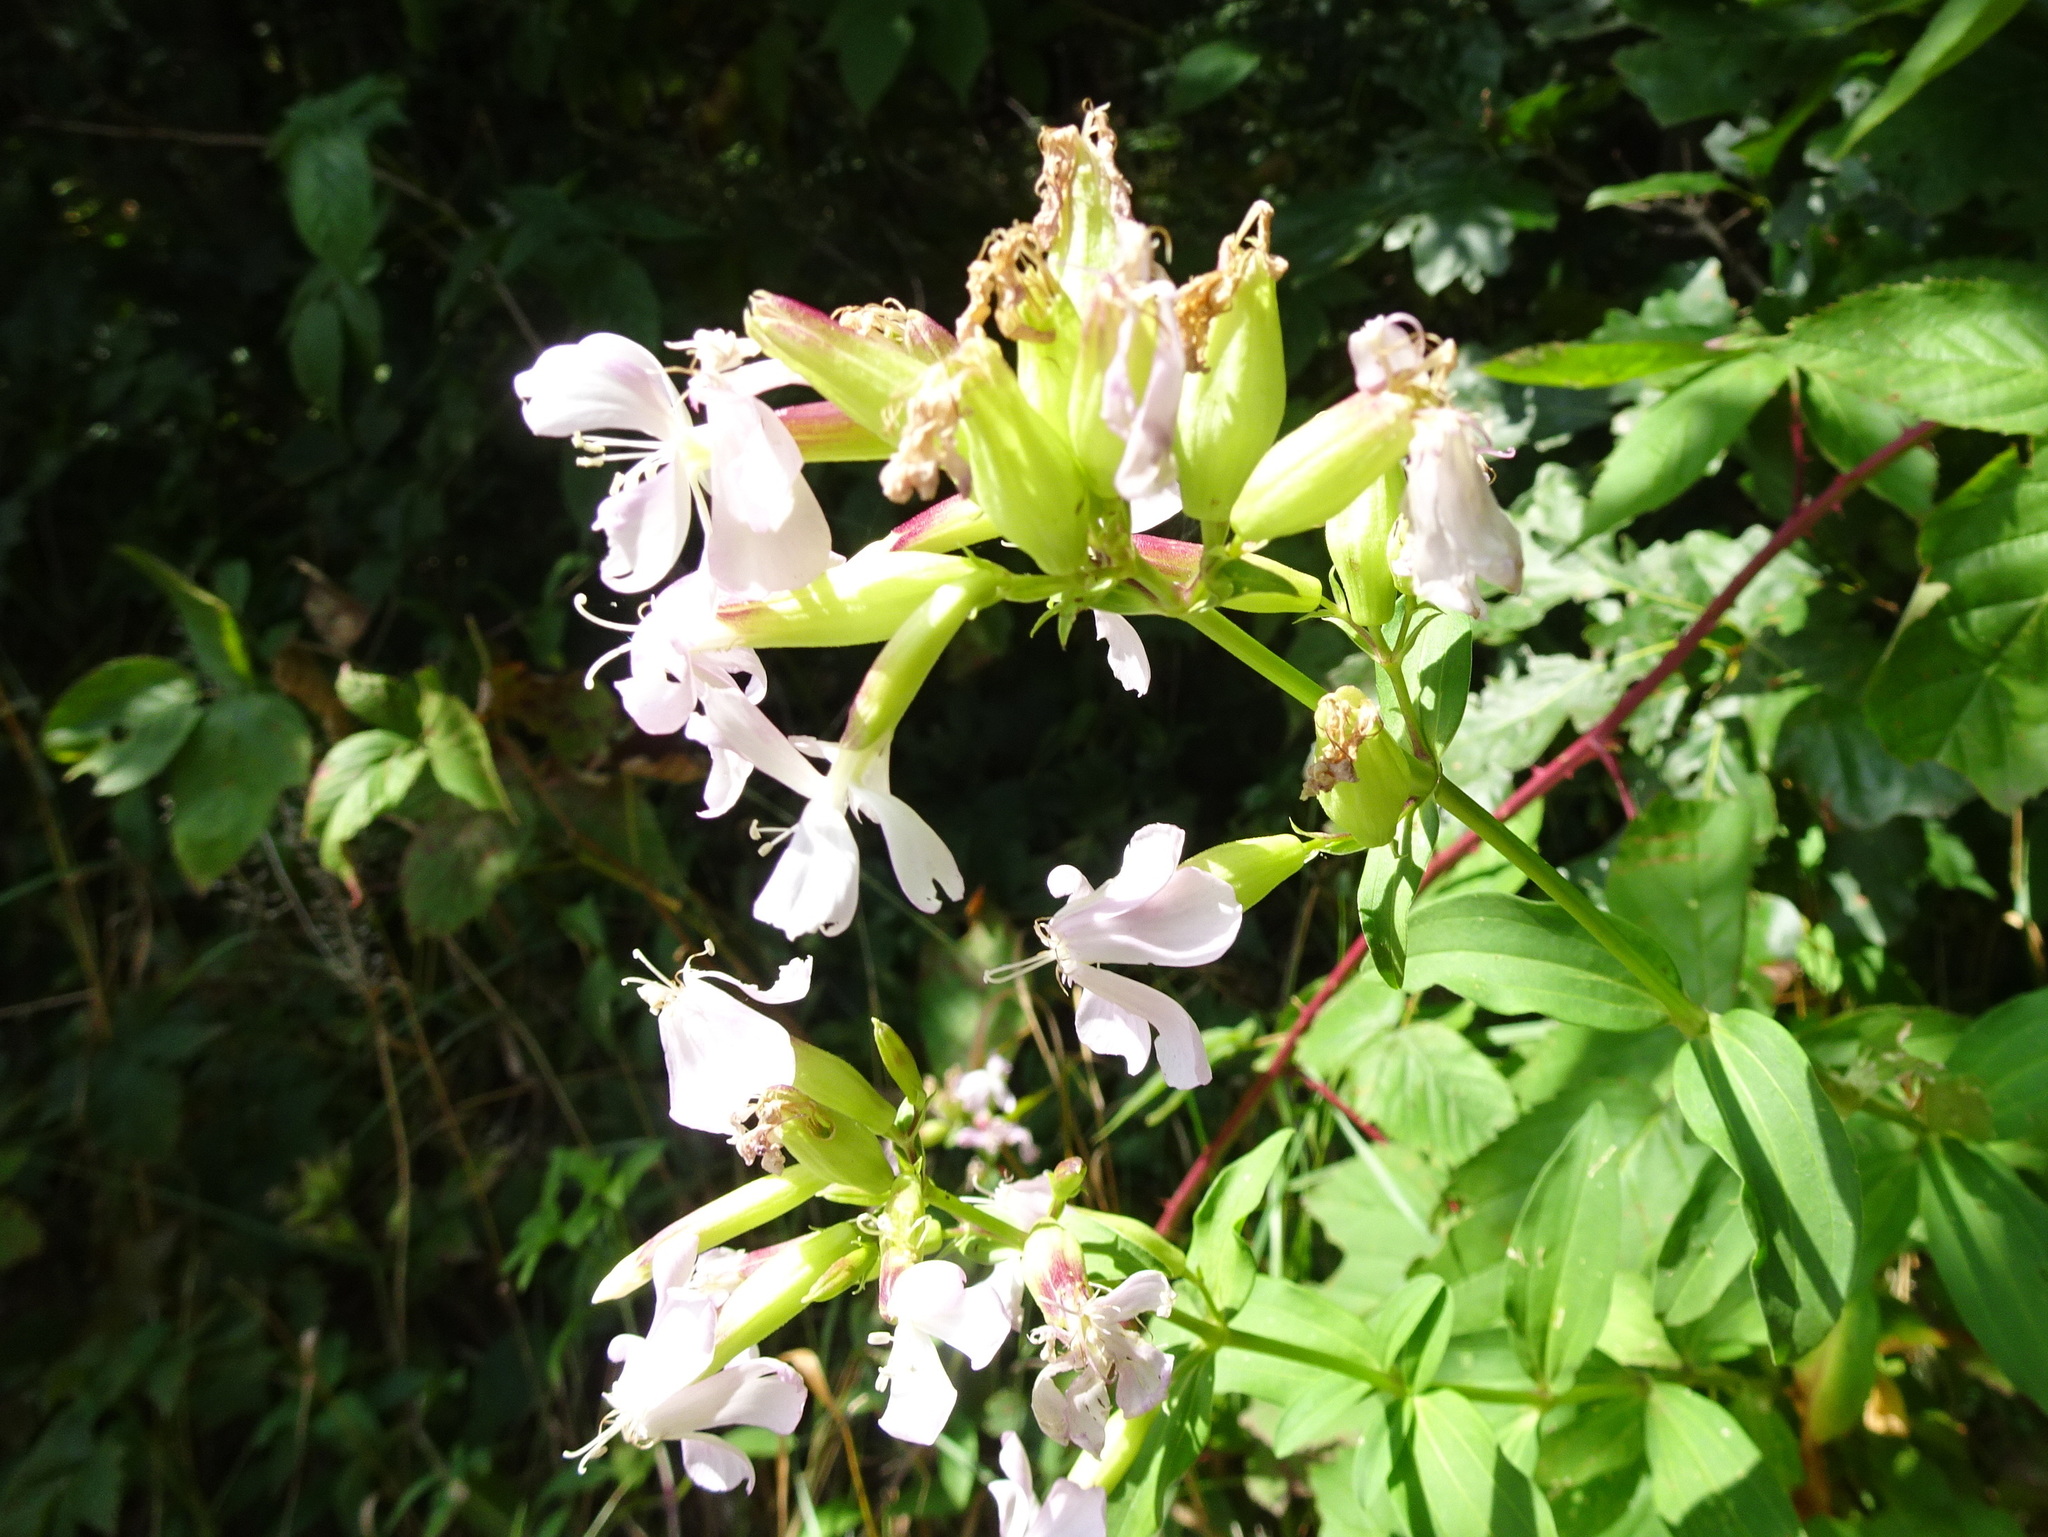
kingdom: Plantae
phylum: Tracheophyta
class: Magnoliopsida
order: Caryophyllales
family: Caryophyllaceae
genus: Saponaria
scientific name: Saponaria officinalis
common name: Soapwort
